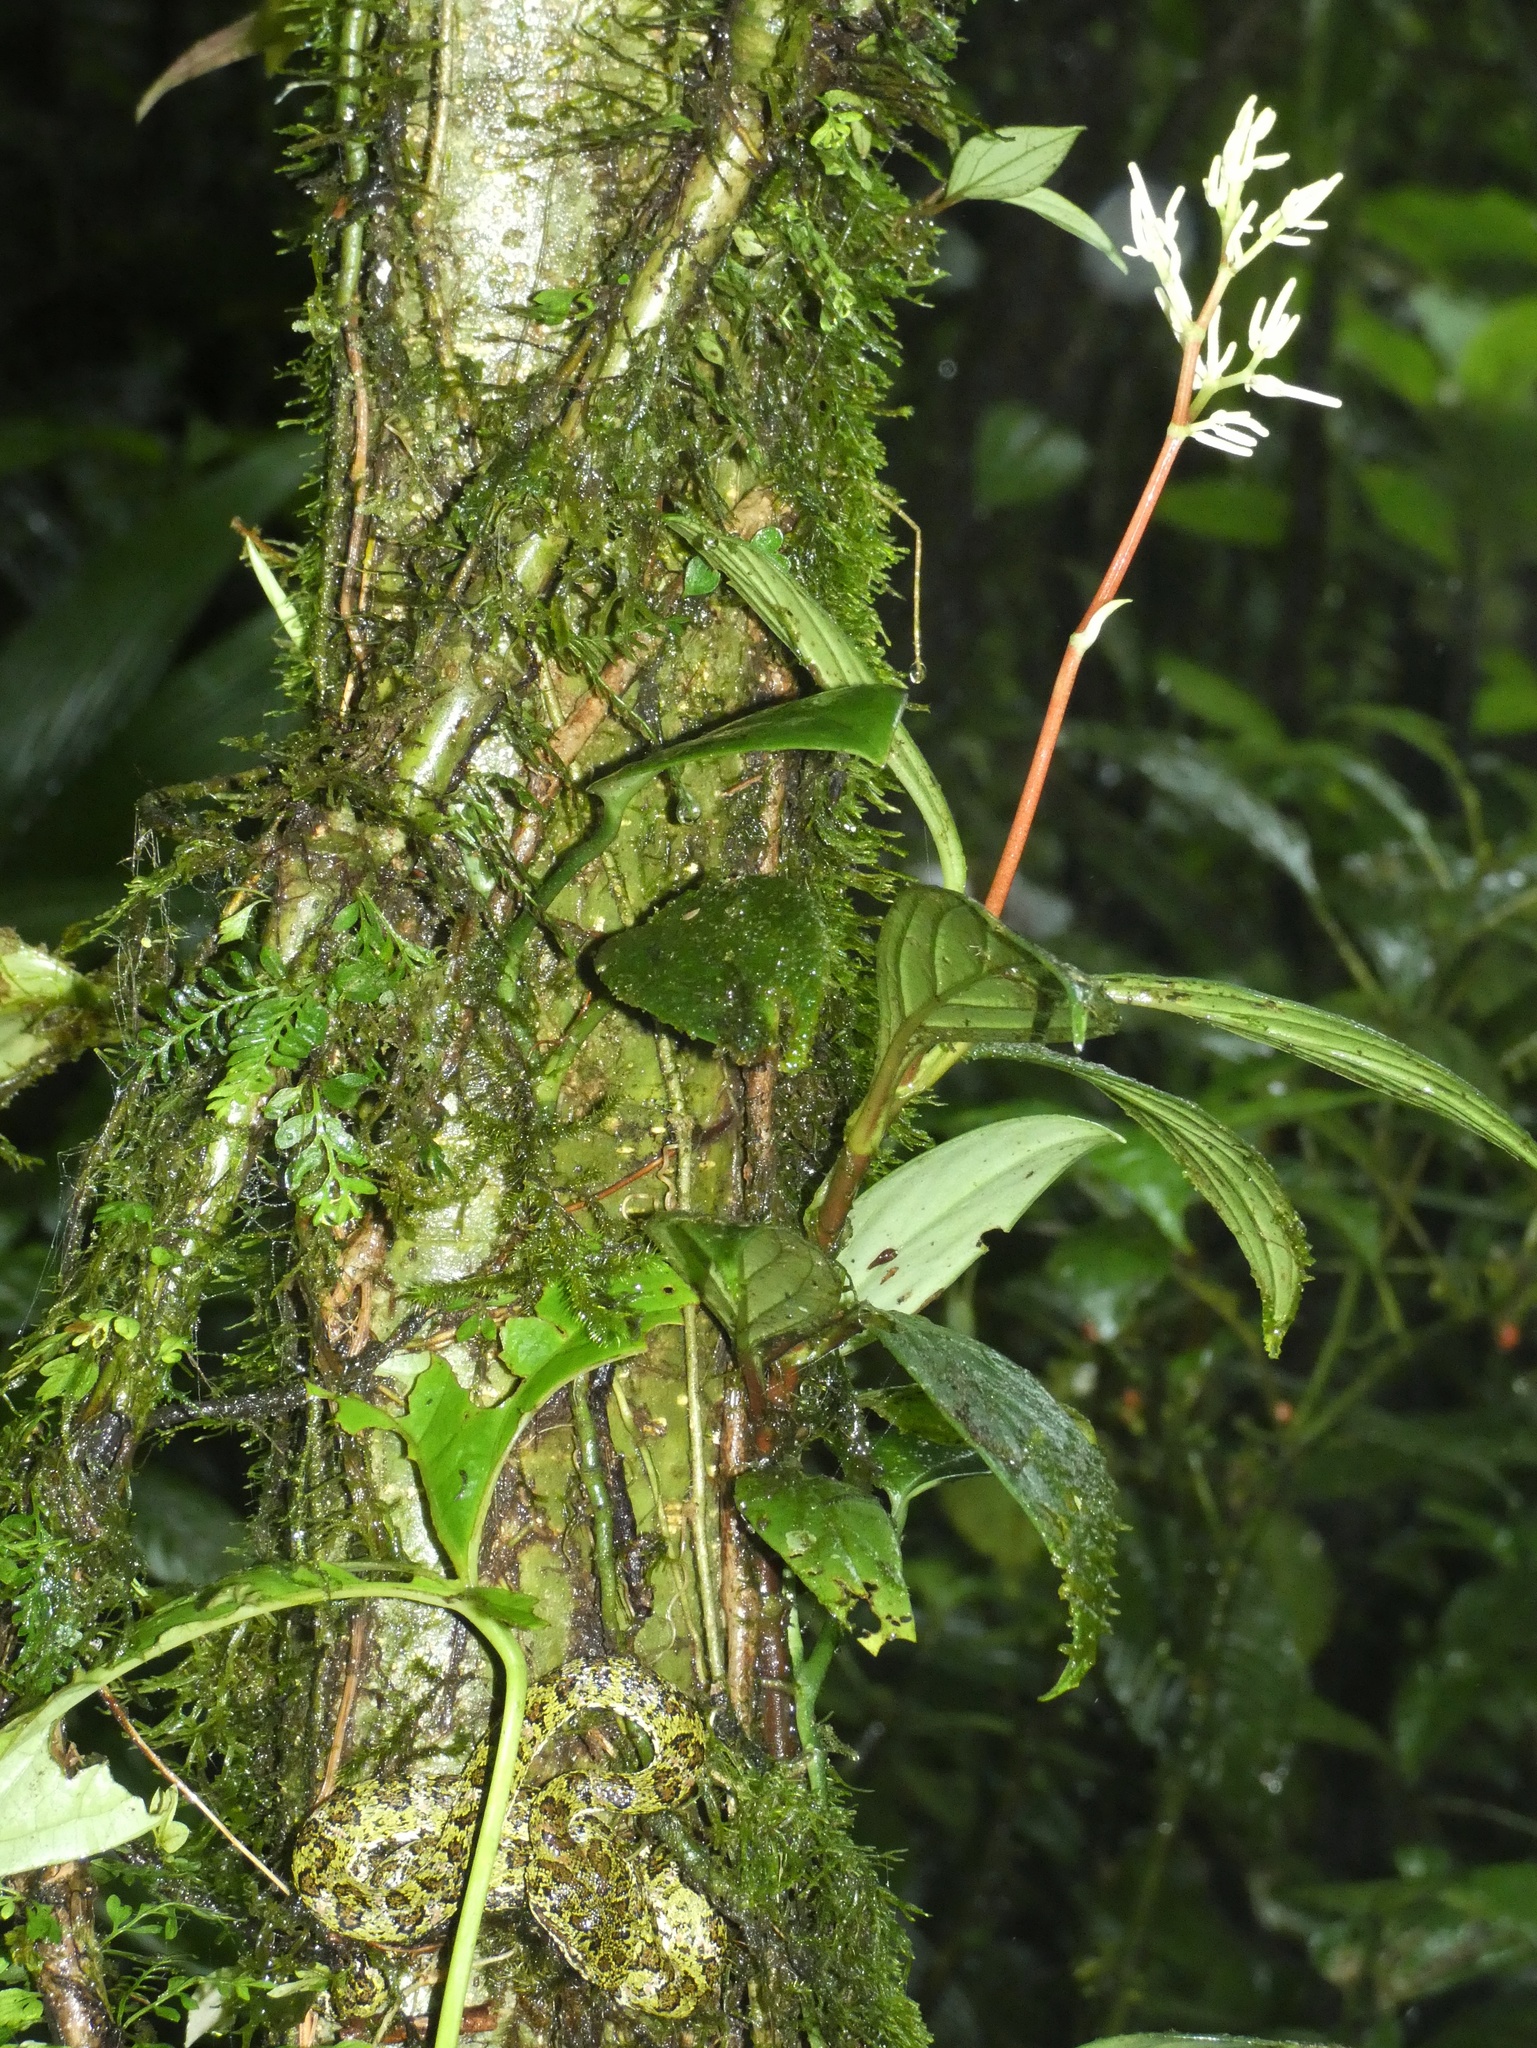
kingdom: Animalia
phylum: Chordata
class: Squamata
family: Viperidae
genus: Bothriechis
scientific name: Bothriechis schlegelii
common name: Eyelash viper
